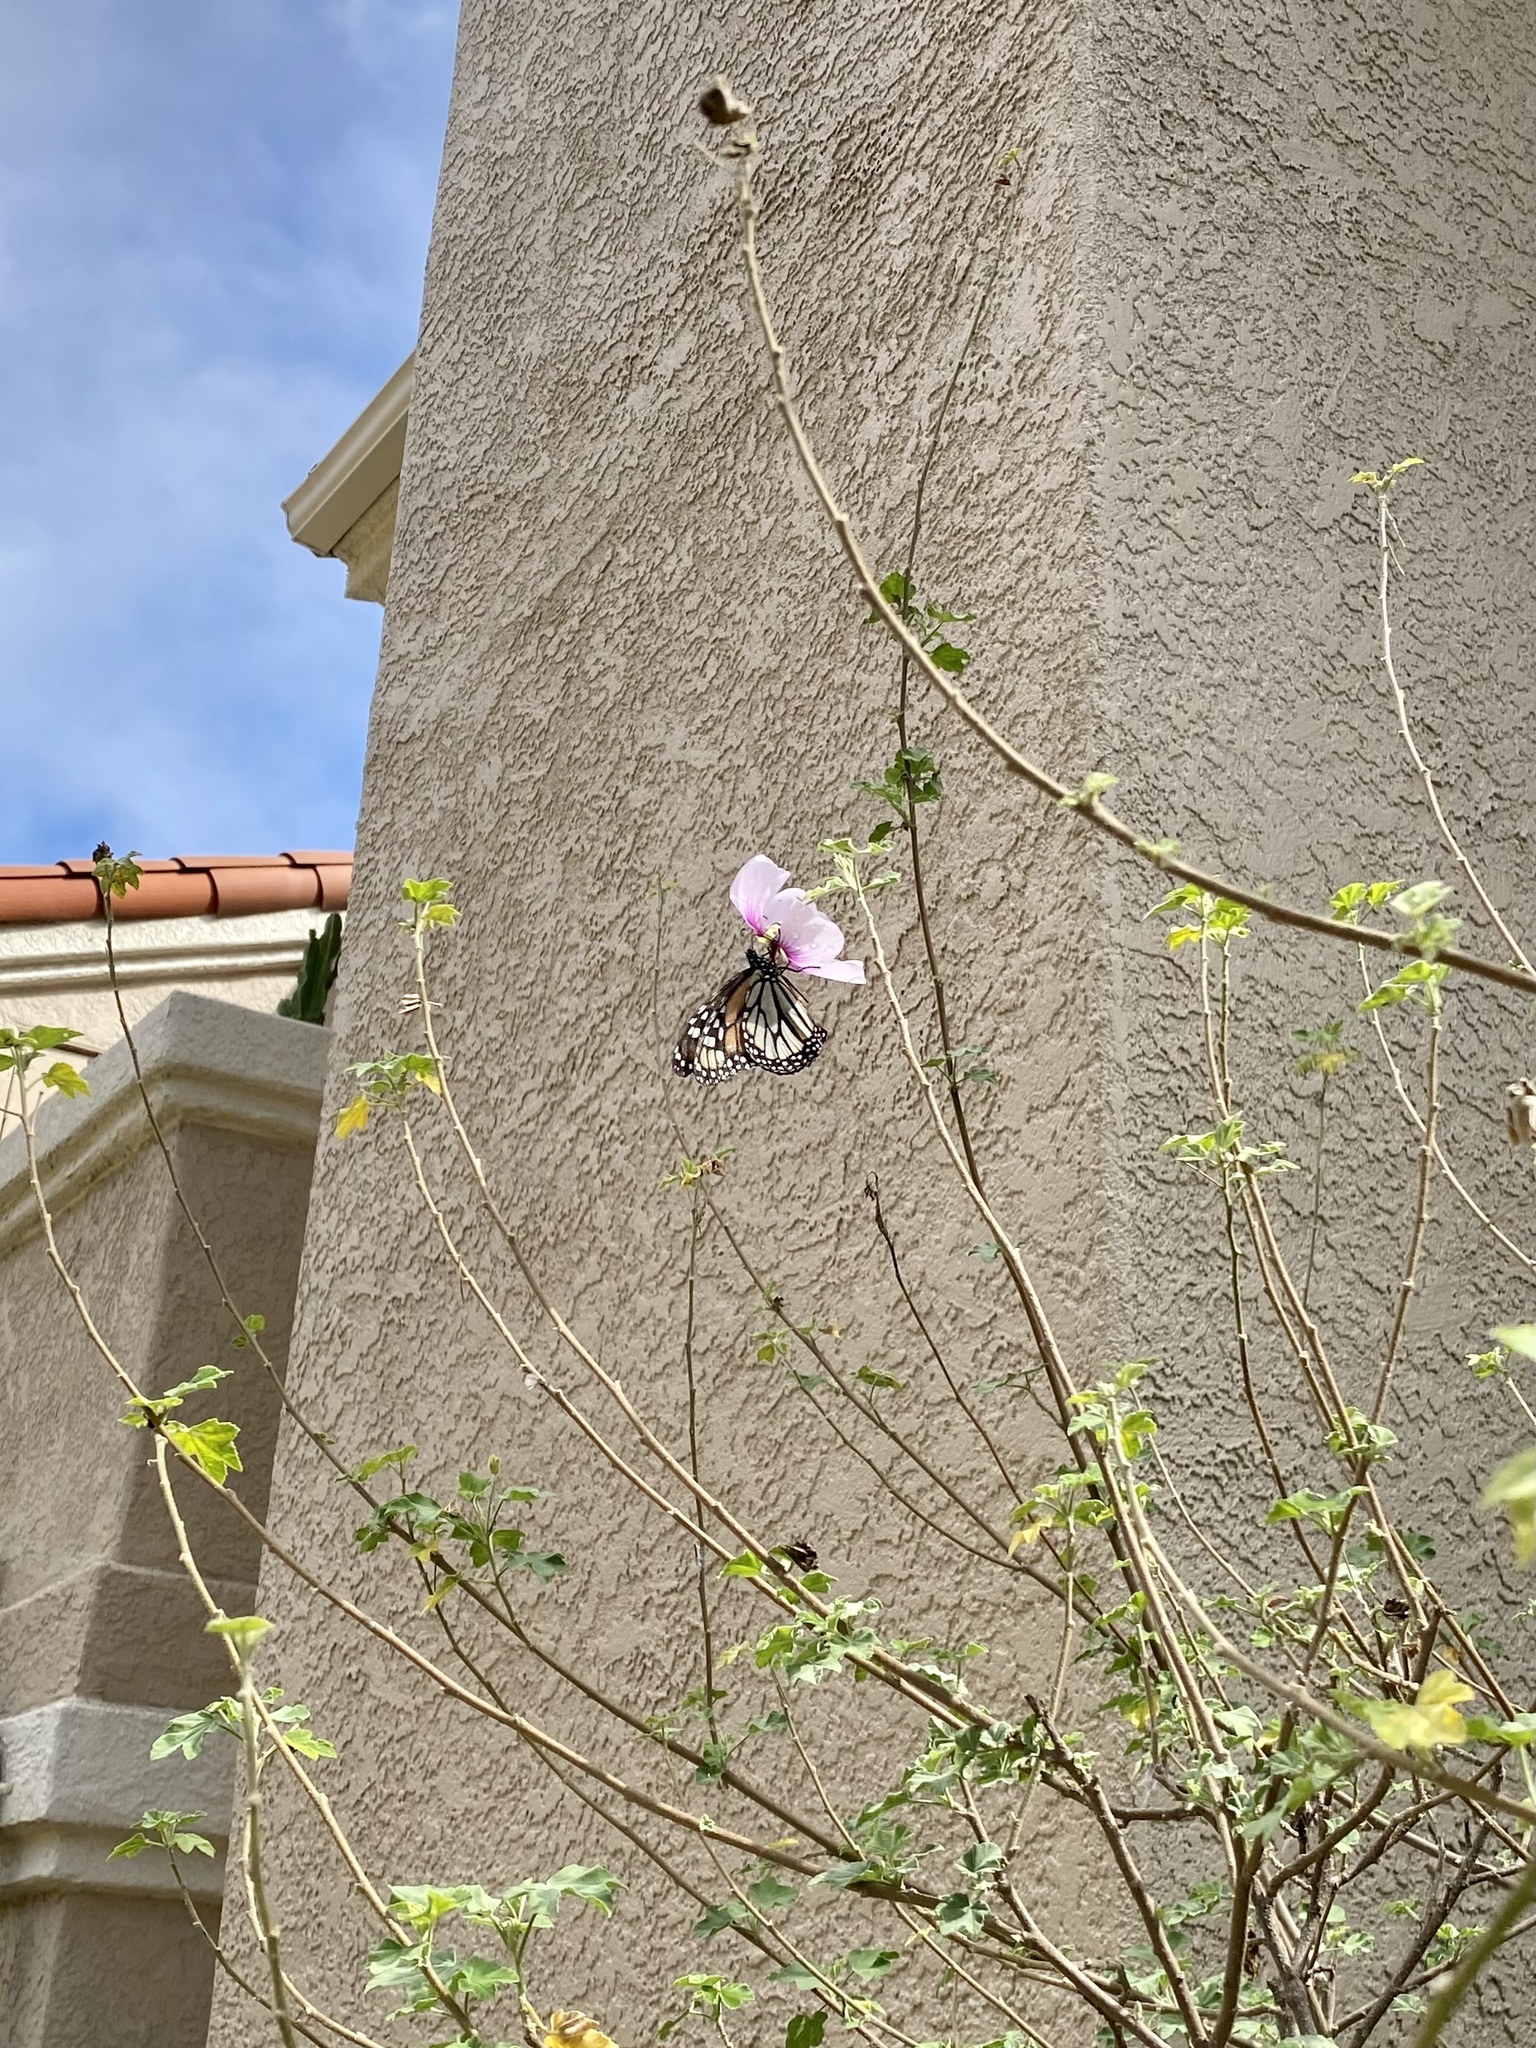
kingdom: Animalia
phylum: Arthropoda
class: Insecta
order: Lepidoptera
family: Nymphalidae
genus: Danaus
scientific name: Danaus plexippus
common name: Monarch
